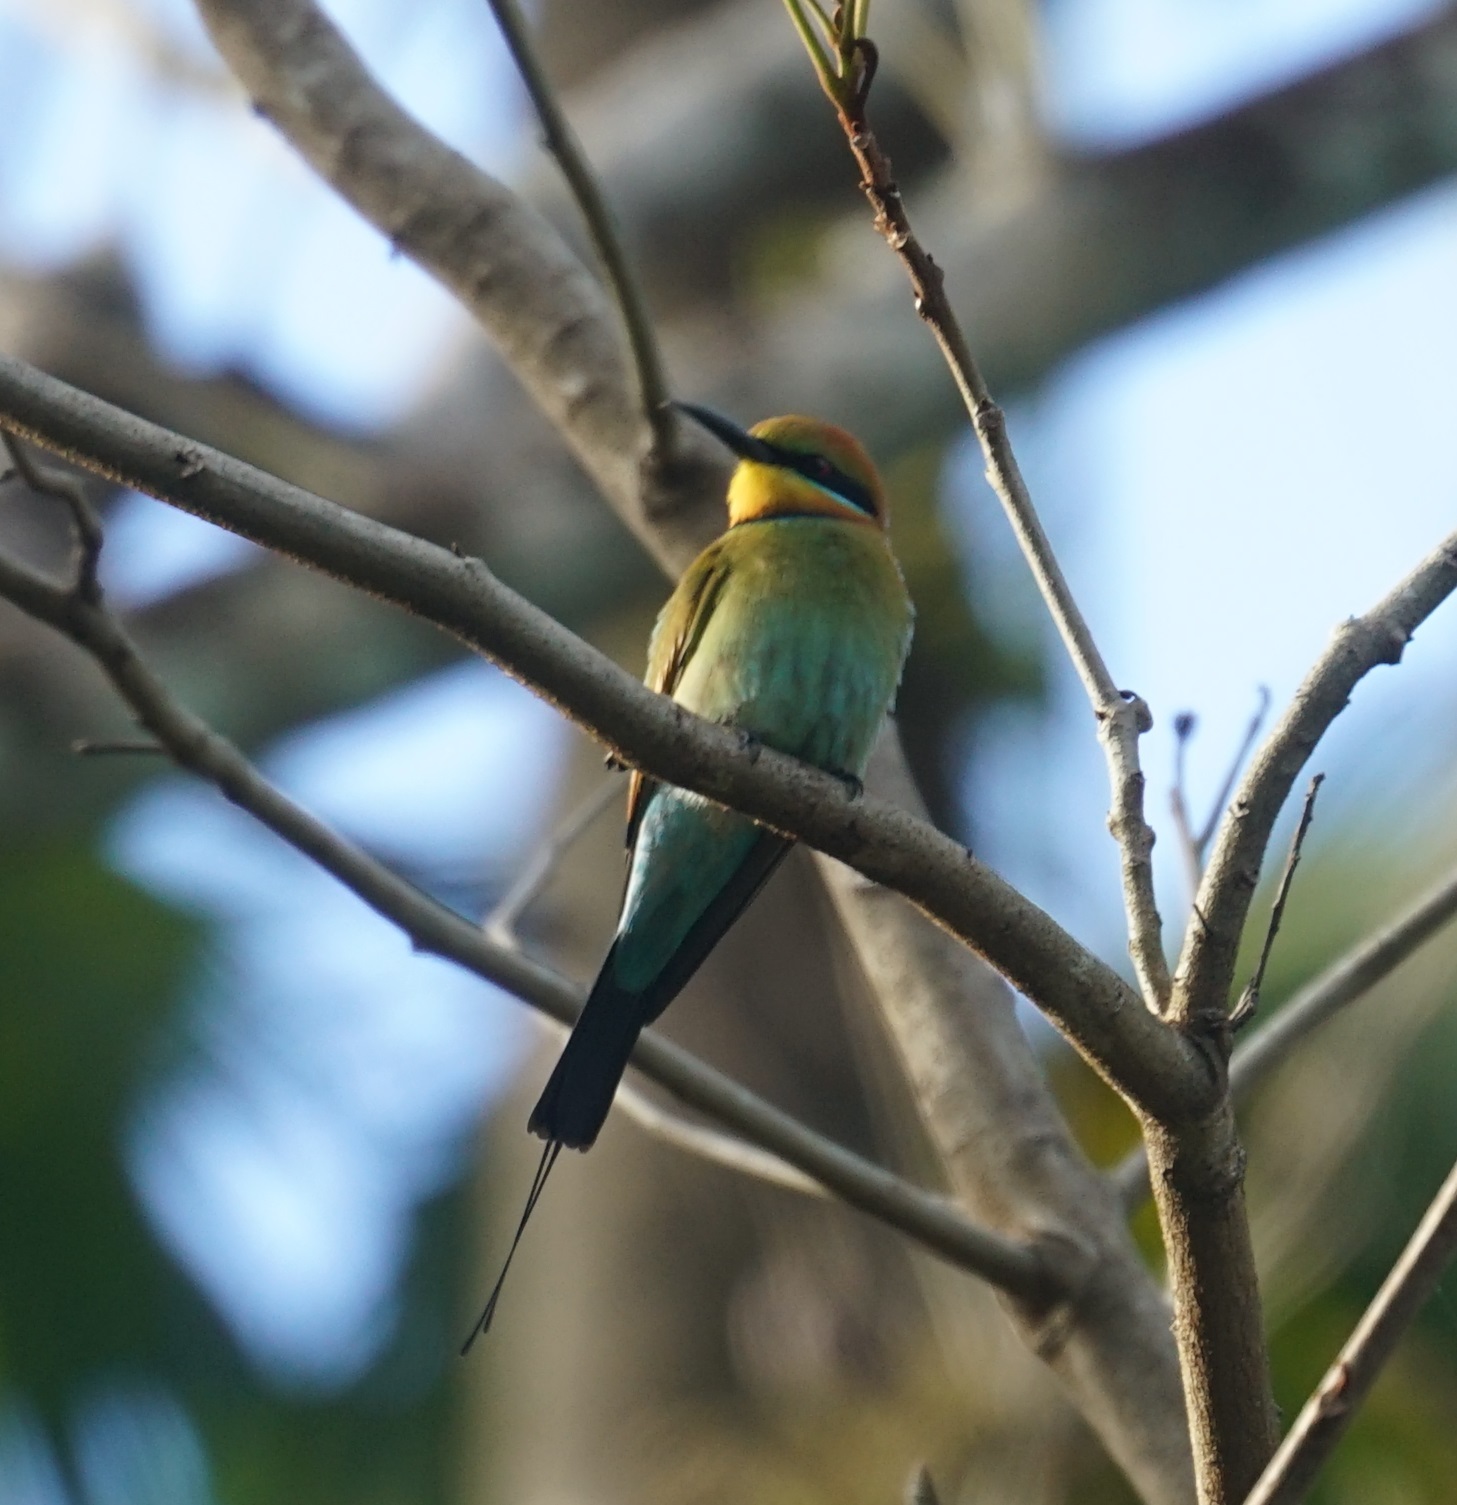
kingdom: Animalia
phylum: Chordata
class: Aves
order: Coraciiformes
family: Meropidae
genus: Merops
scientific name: Merops ornatus
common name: Rainbow bee-eater
